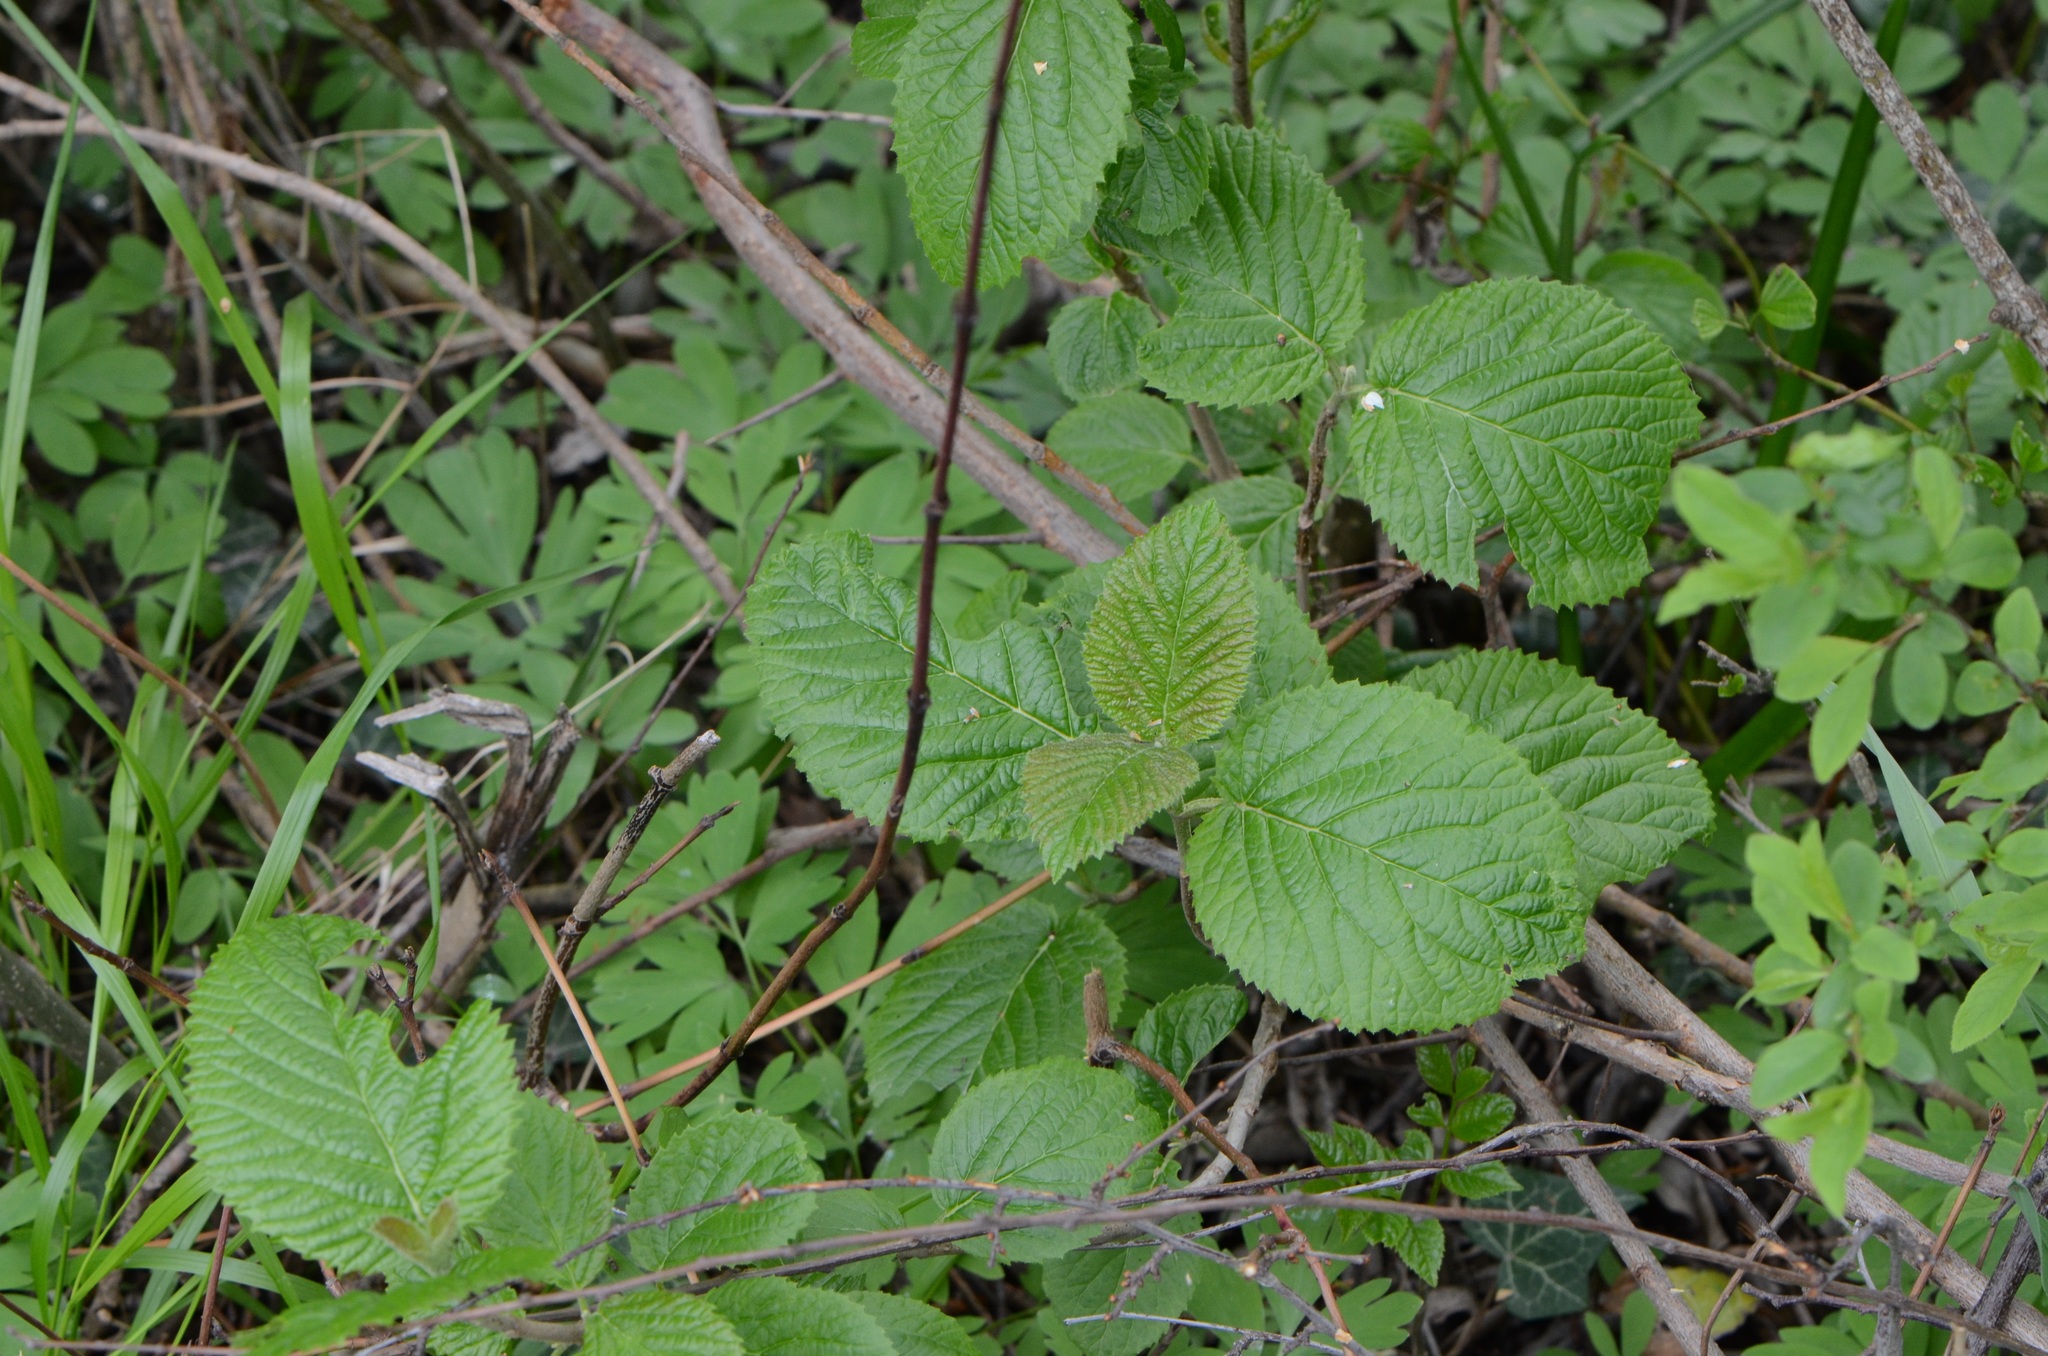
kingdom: Plantae
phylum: Tracheophyta
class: Magnoliopsida
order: Dipsacales
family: Viburnaceae
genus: Viburnum
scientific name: Viburnum lantana
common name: Wayfaring tree
